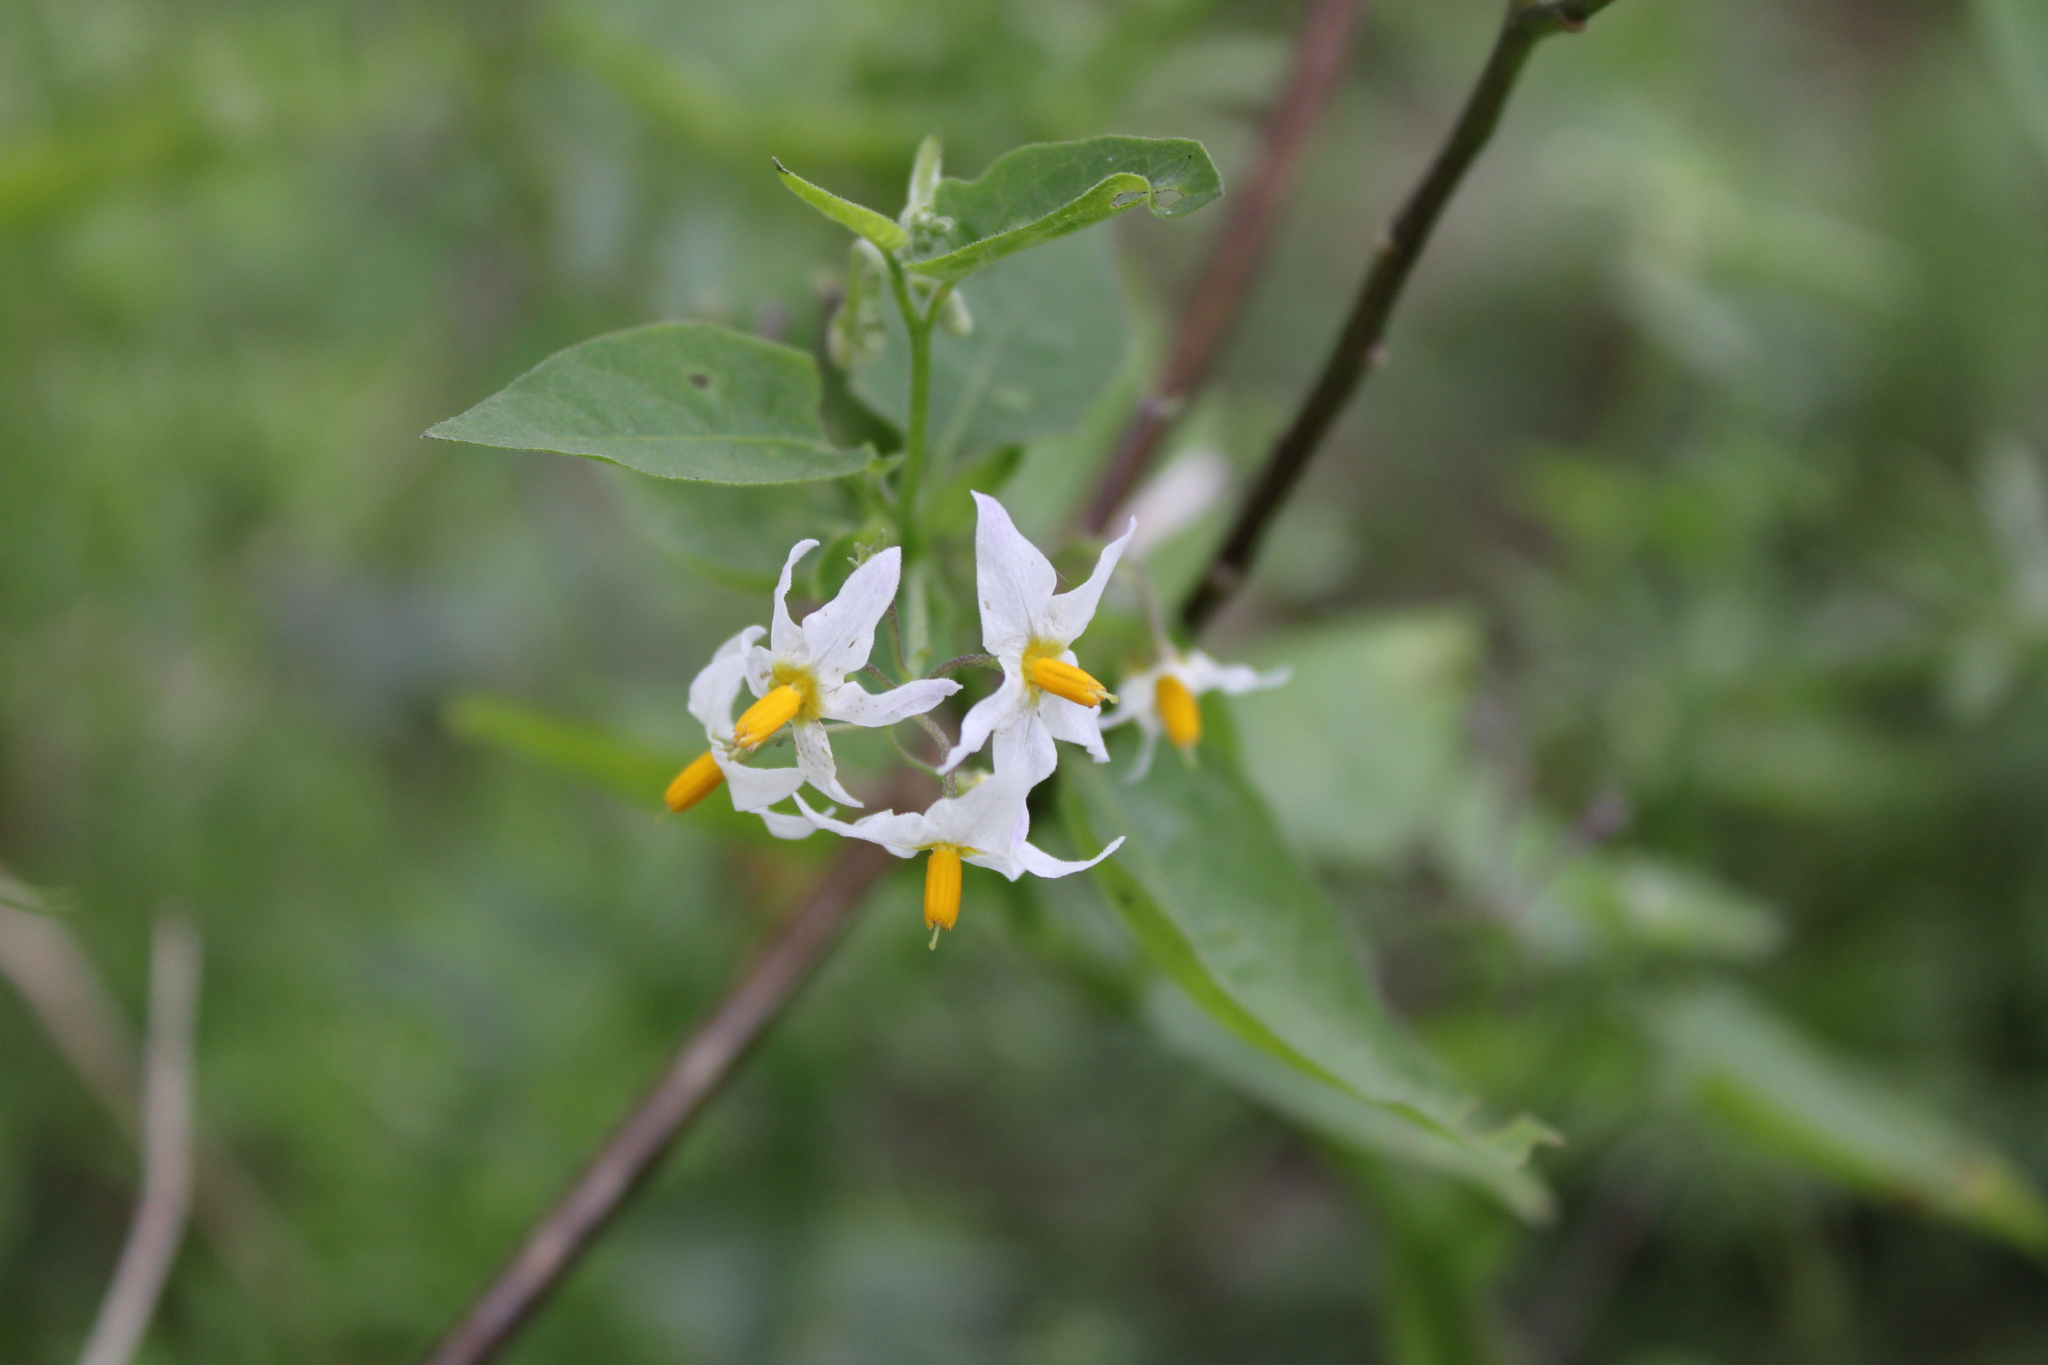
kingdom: Plantae
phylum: Tracheophyta
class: Magnoliopsida
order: Solanales
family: Solanaceae
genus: Solanum
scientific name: Solanum pilcomayense
